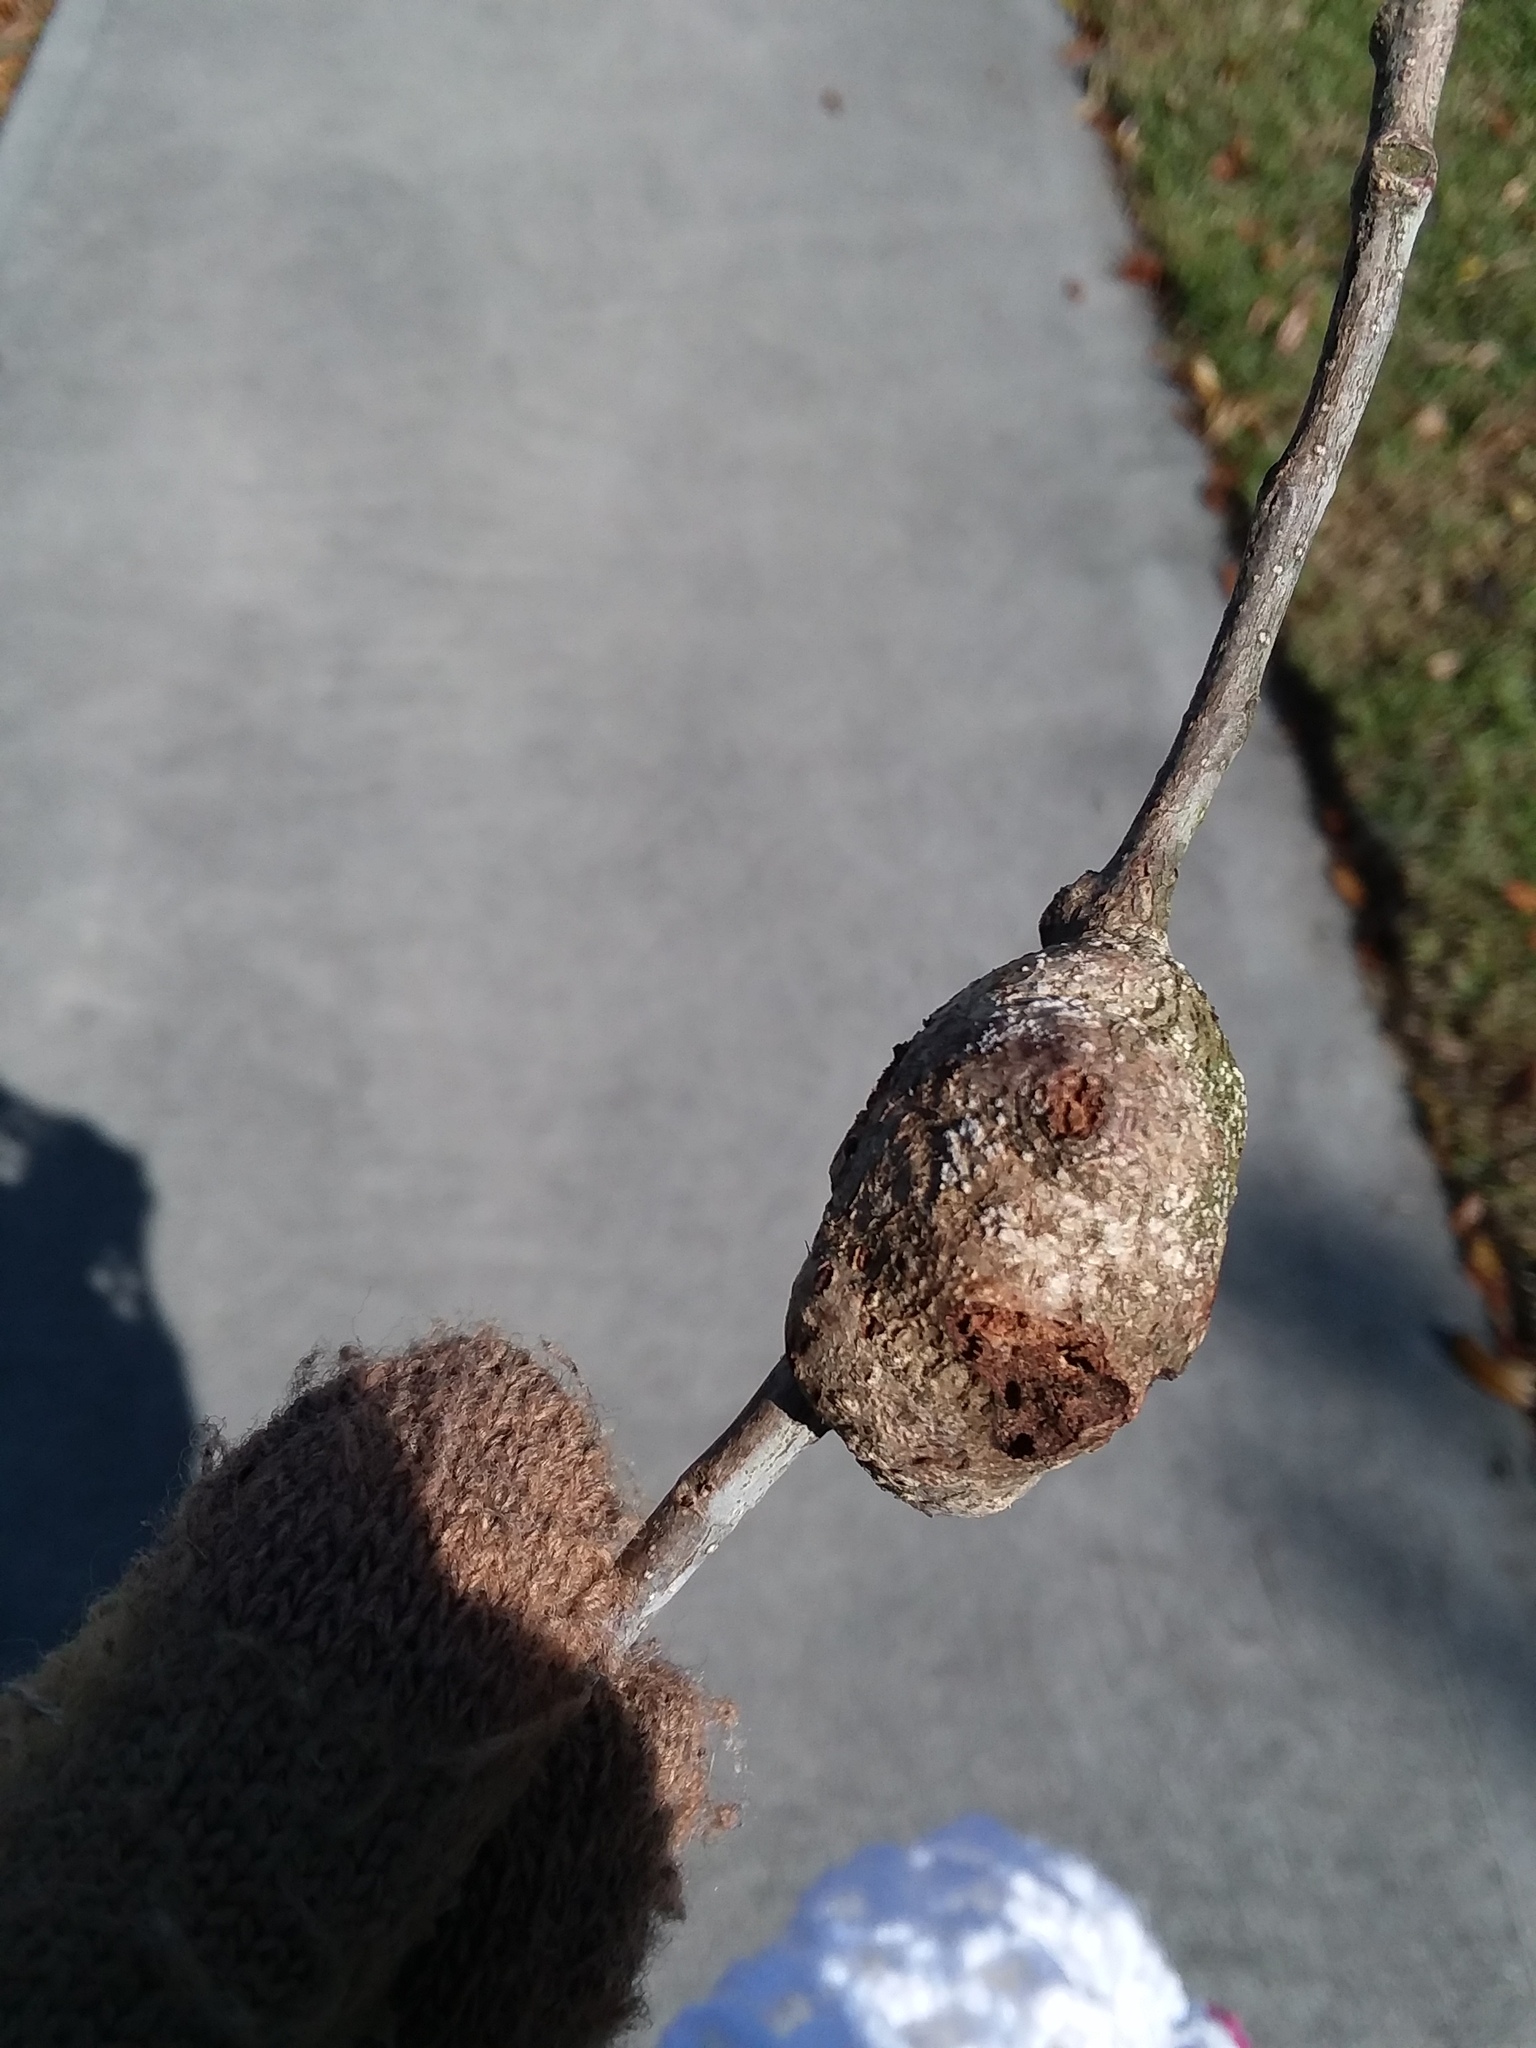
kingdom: Animalia
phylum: Arthropoda
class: Insecta
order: Hymenoptera
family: Cynipidae
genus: Callirhytis
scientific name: Callirhytis
